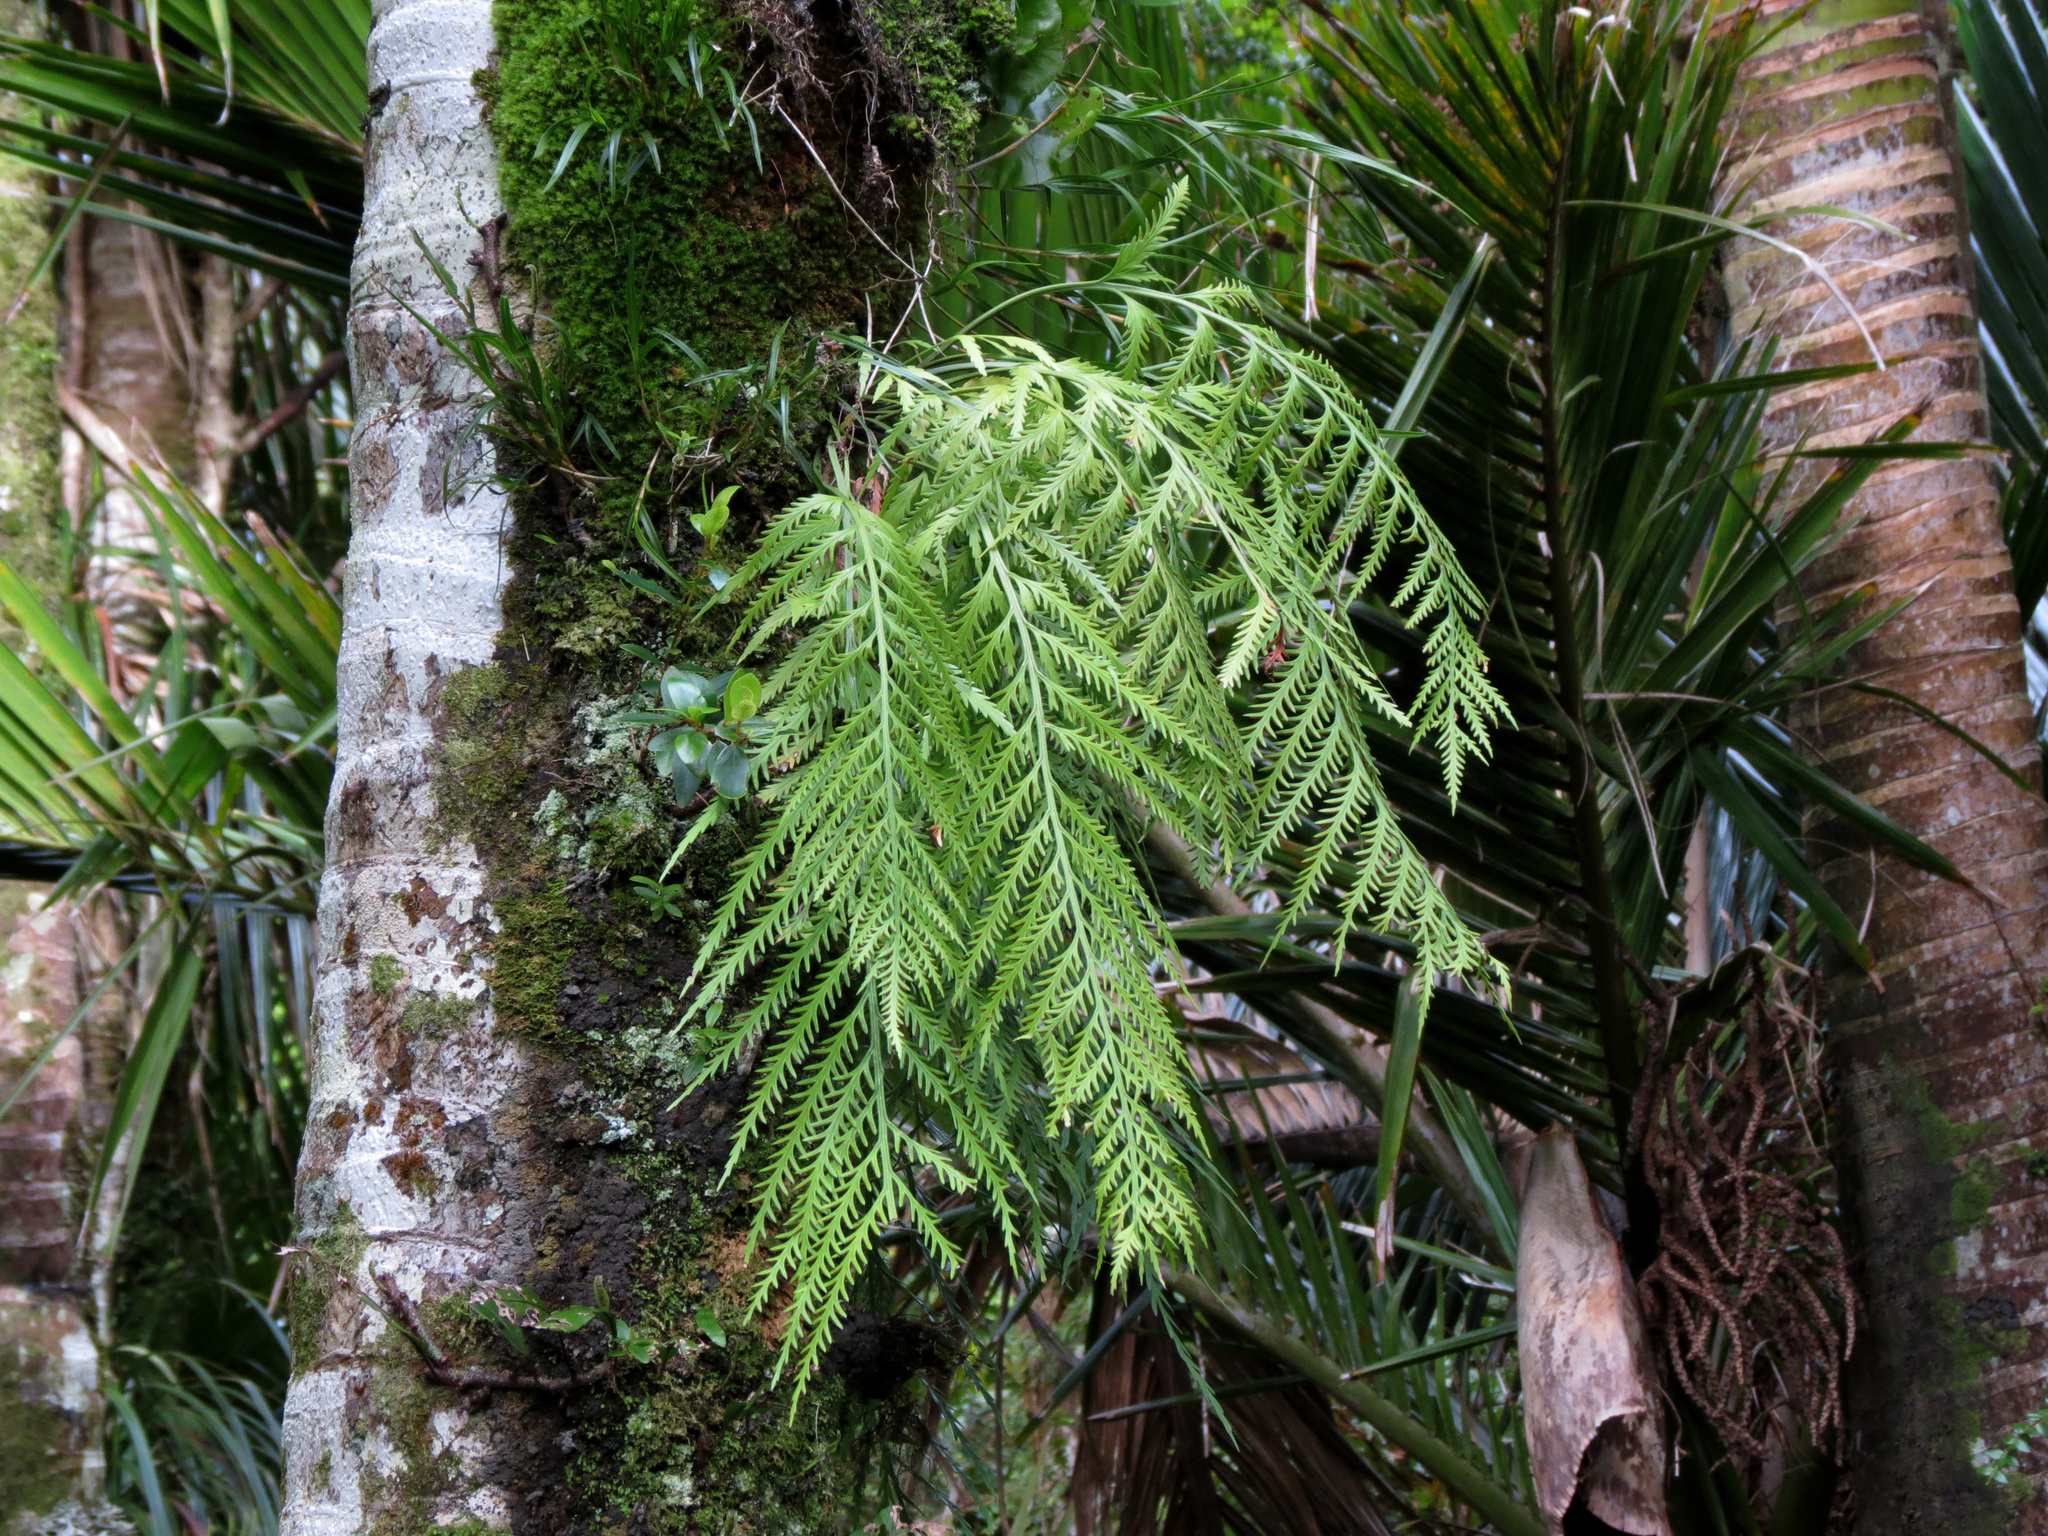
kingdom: Plantae
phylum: Tracheophyta
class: Polypodiopsida
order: Polypodiales
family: Aspleniaceae
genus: Asplenium
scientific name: Asplenium flaccidum
